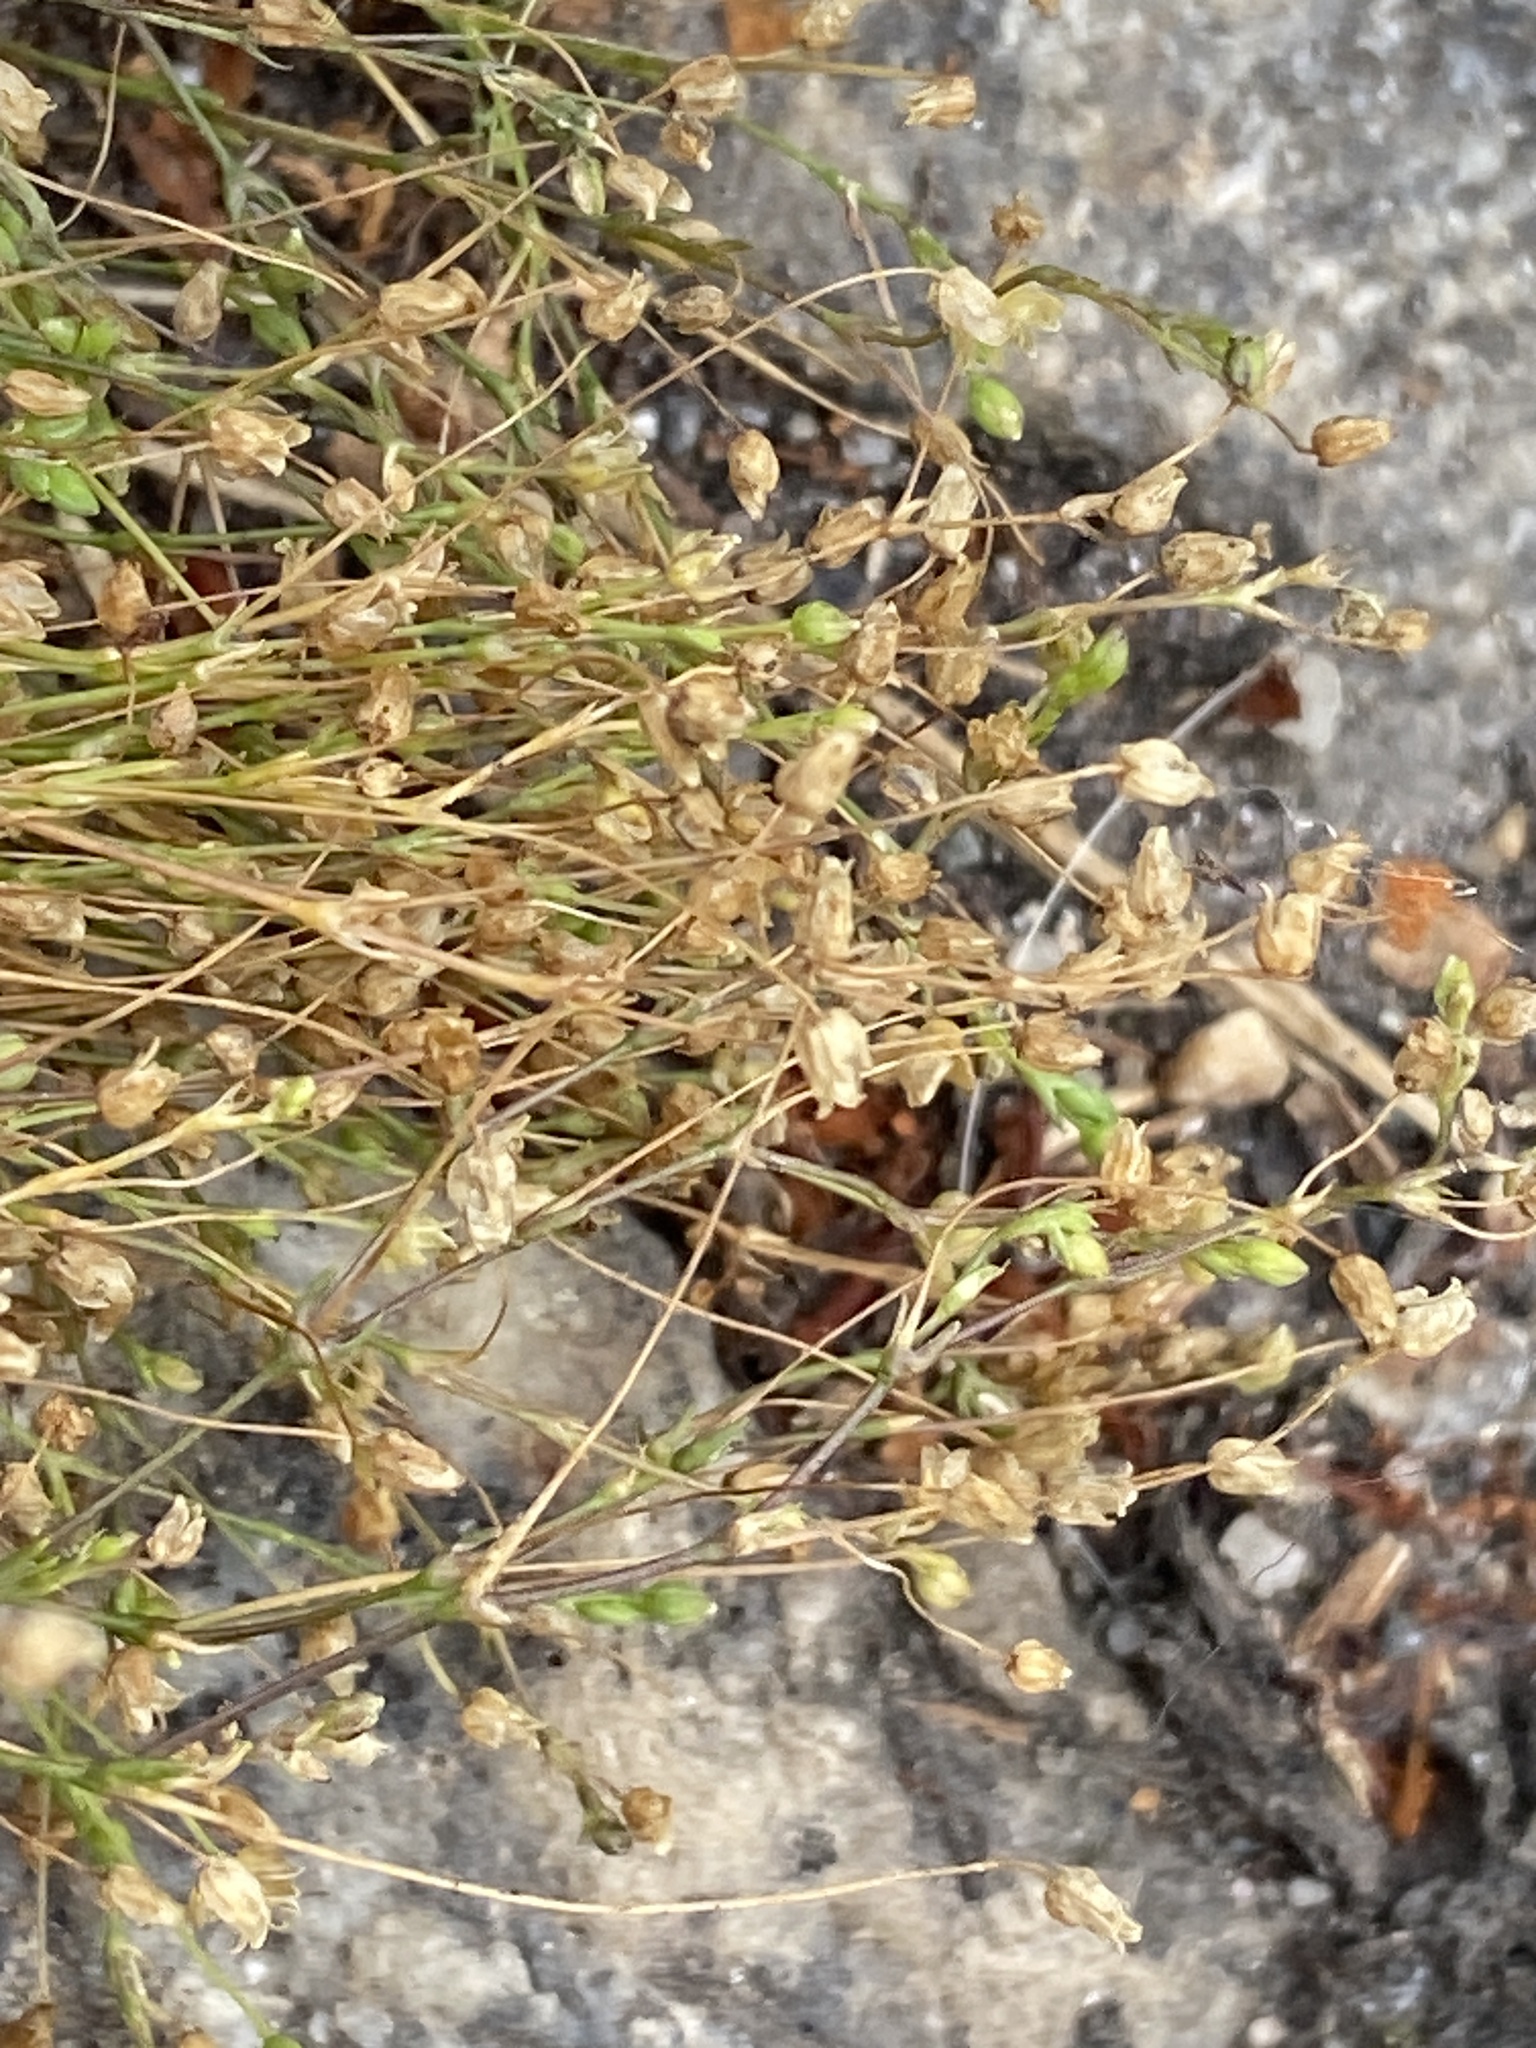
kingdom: Plantae
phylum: Tracheophyta
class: Magnoliopsida
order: Caryophyllales
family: Caryophyllaceae
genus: Sagina
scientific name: Sagina micropetala
